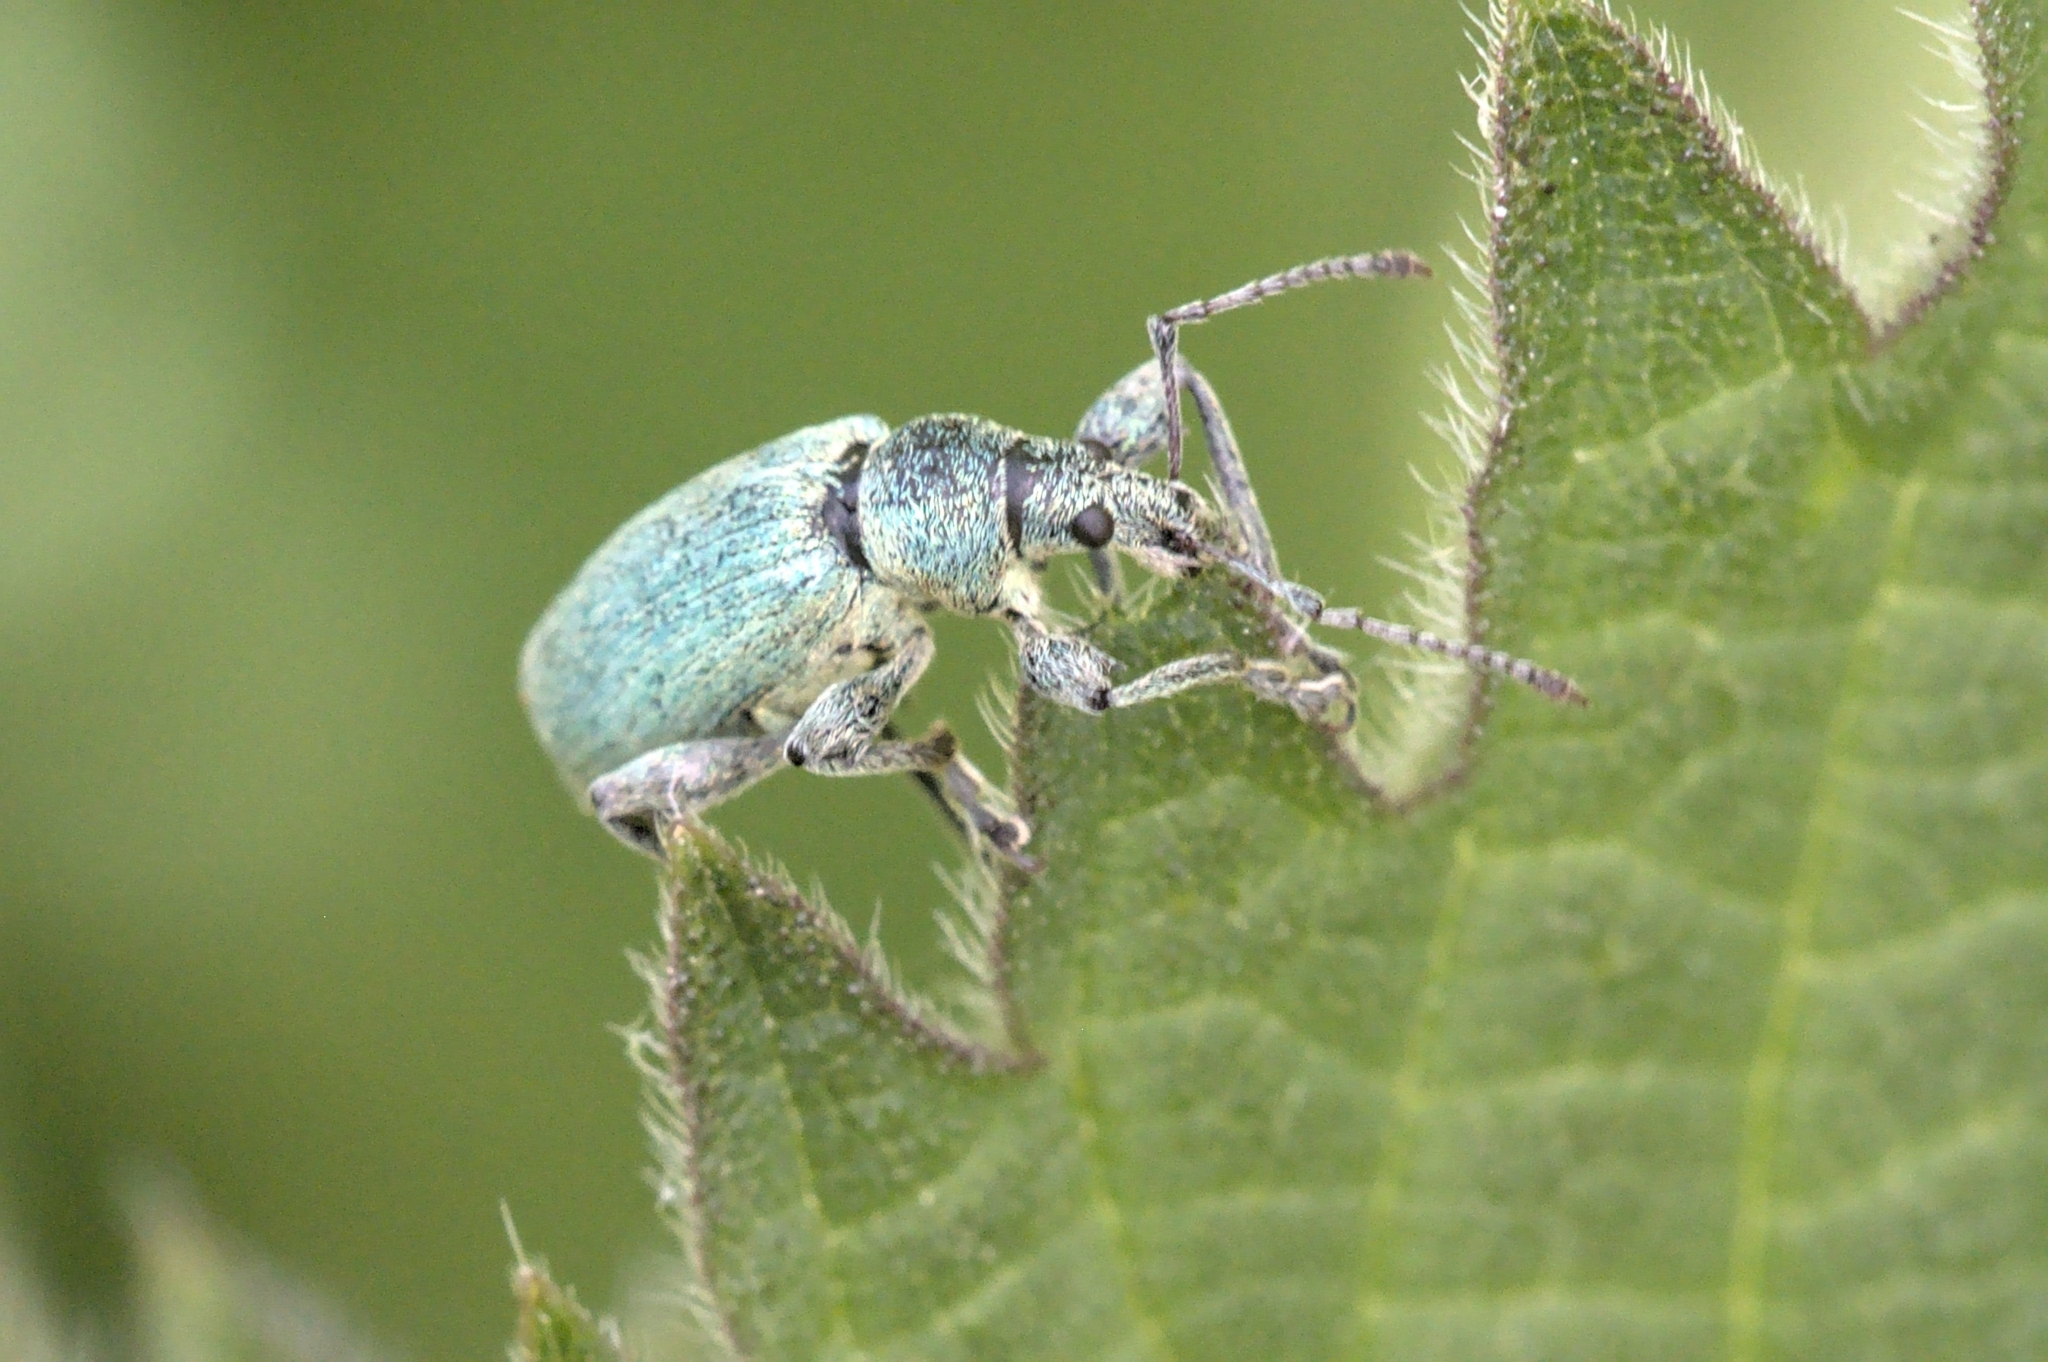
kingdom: Animalia
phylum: Arthropoda
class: Insecta
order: Coleoptera
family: Curculionidae
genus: Phyllobius
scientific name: Phyllobius pomaceus
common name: Green nettle weevil
